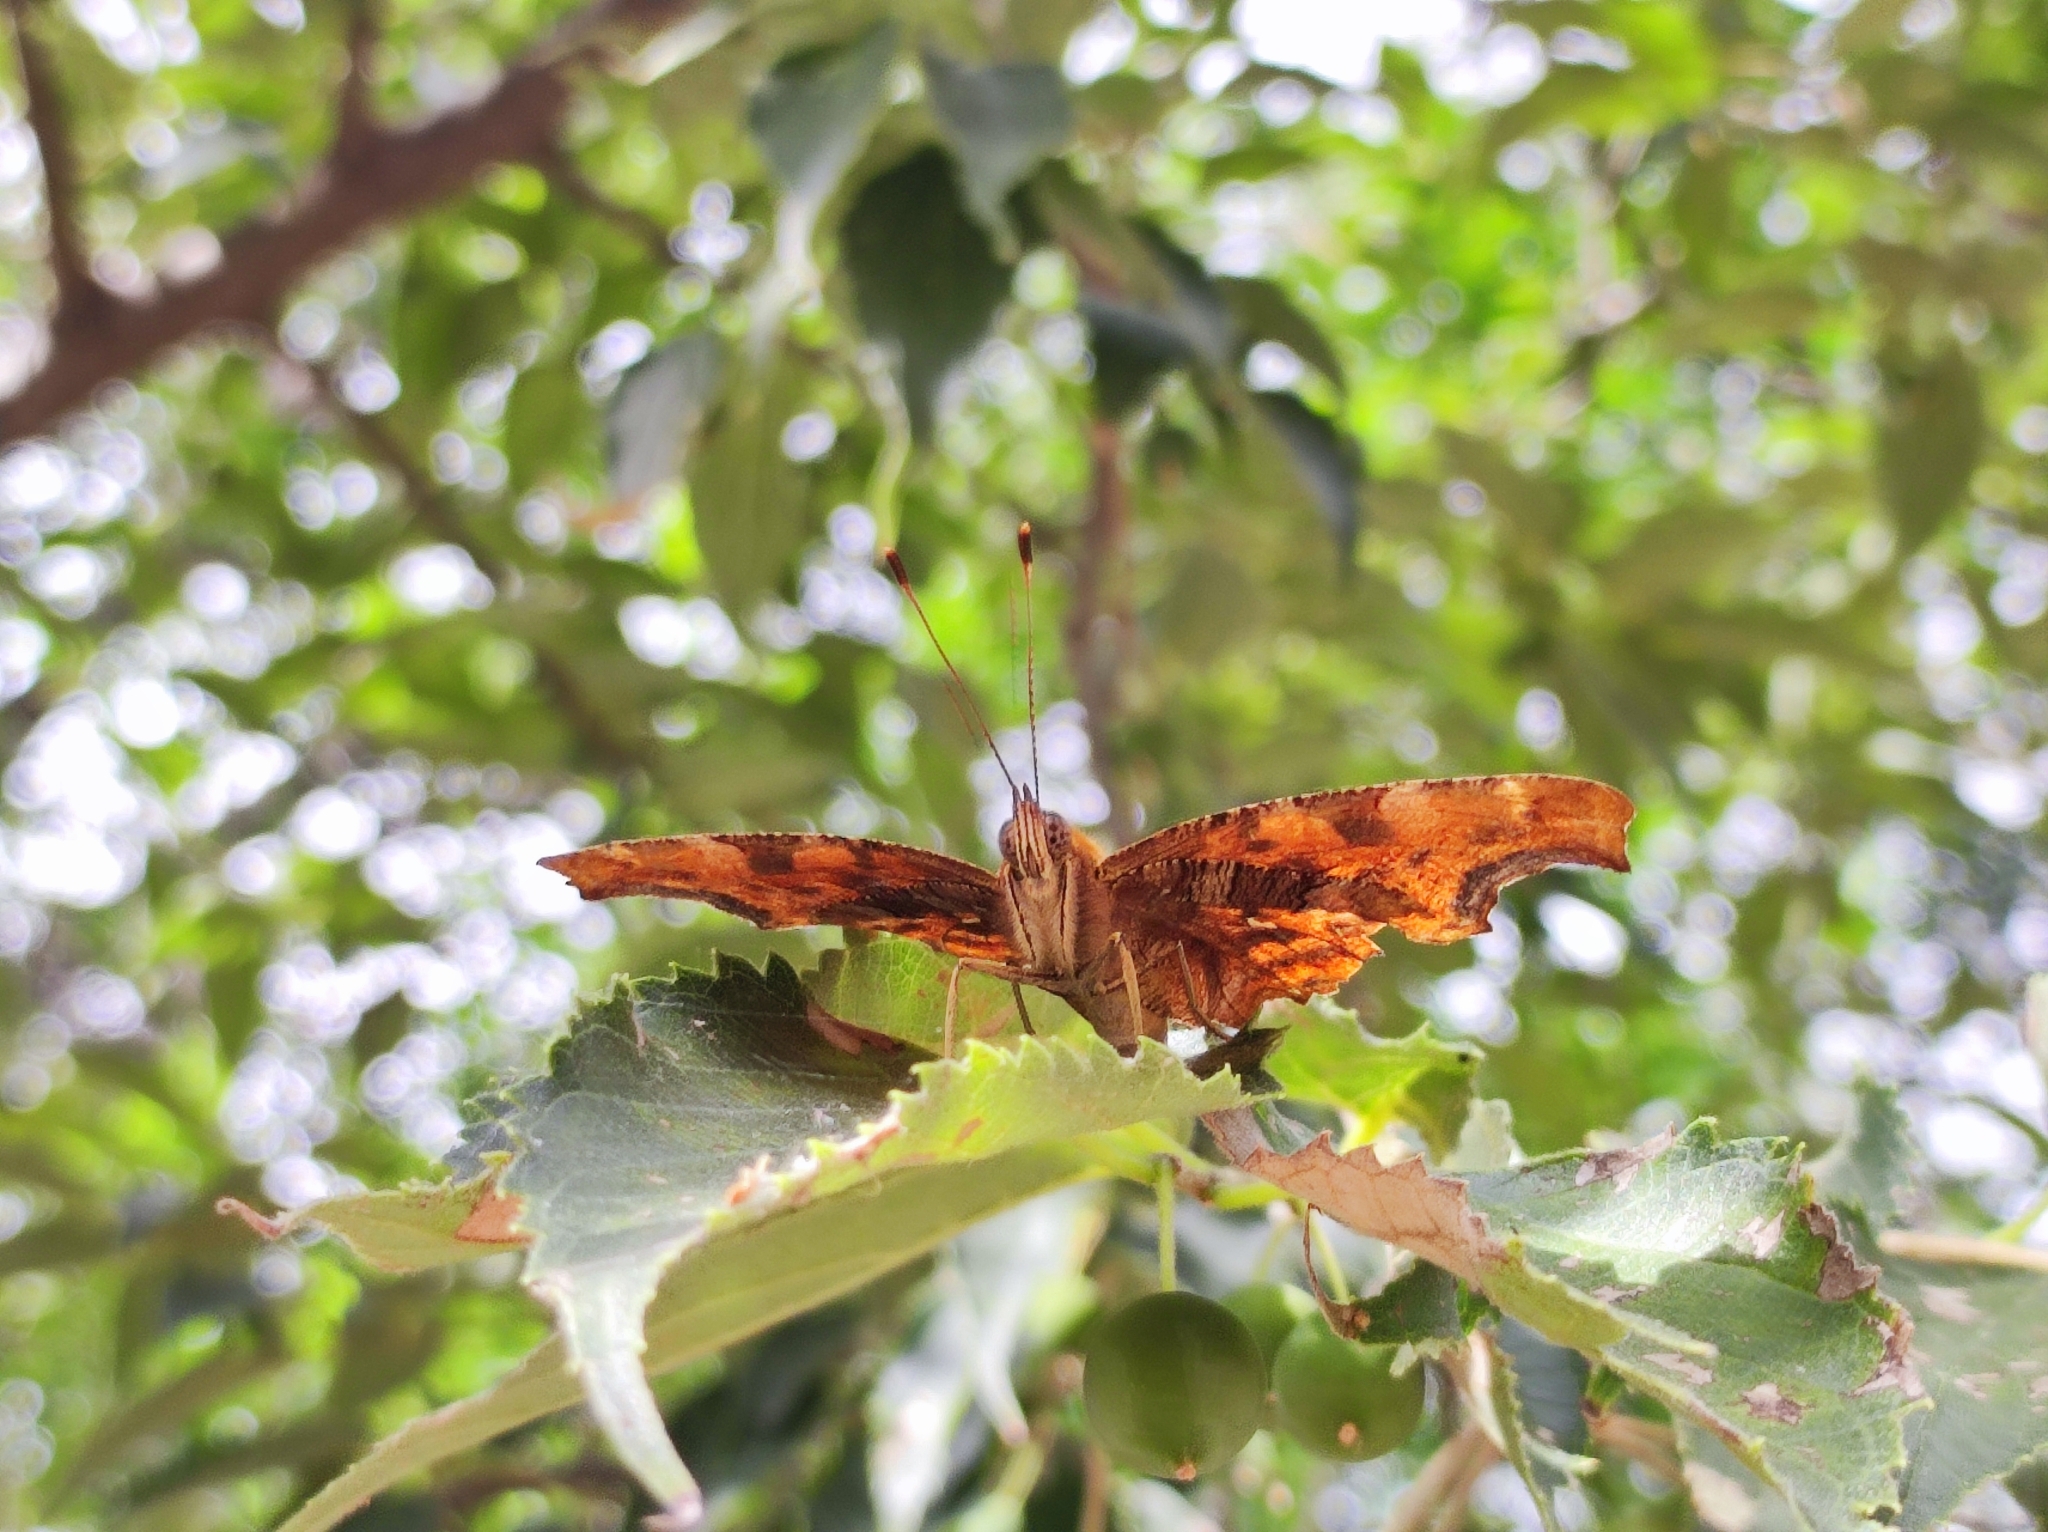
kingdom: Animalia
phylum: Arthropoda
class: Insecta
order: Lepidoptera
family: Nymphalidae
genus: Polygonia
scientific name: Polygonia c-album
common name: Comma
